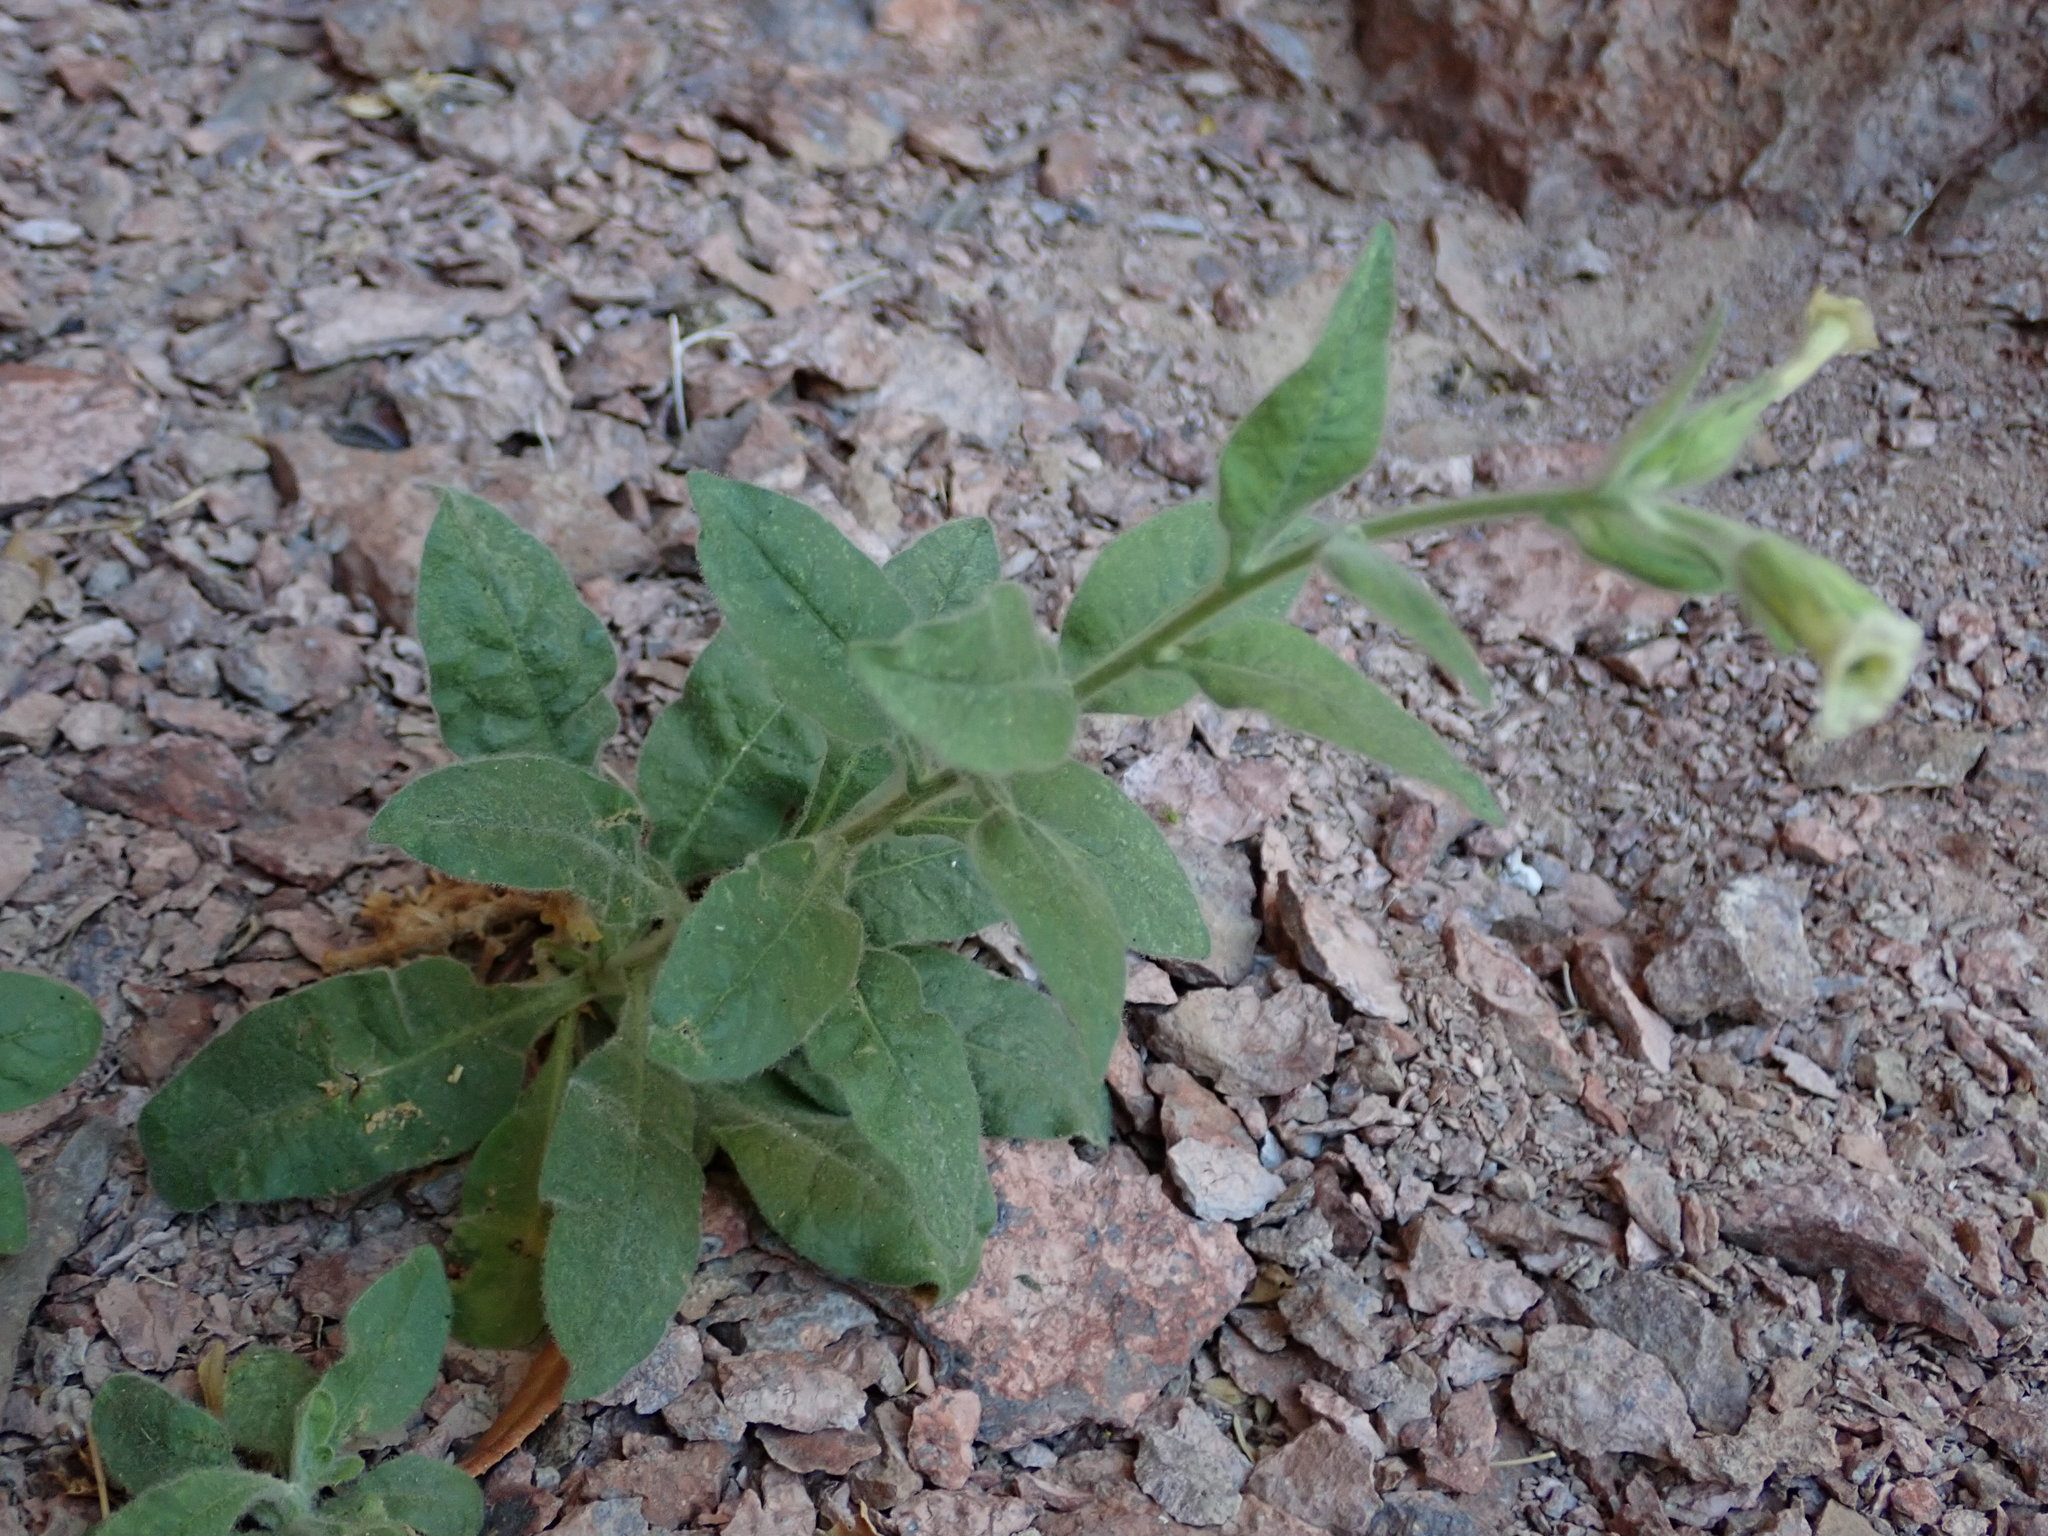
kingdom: Plantae
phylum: Tracheophyta
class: Magnoliopsida
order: Solanales
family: Solanaceae
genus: Nicotiana
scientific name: Nicotiana obtusifolia
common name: Desert tobacco
